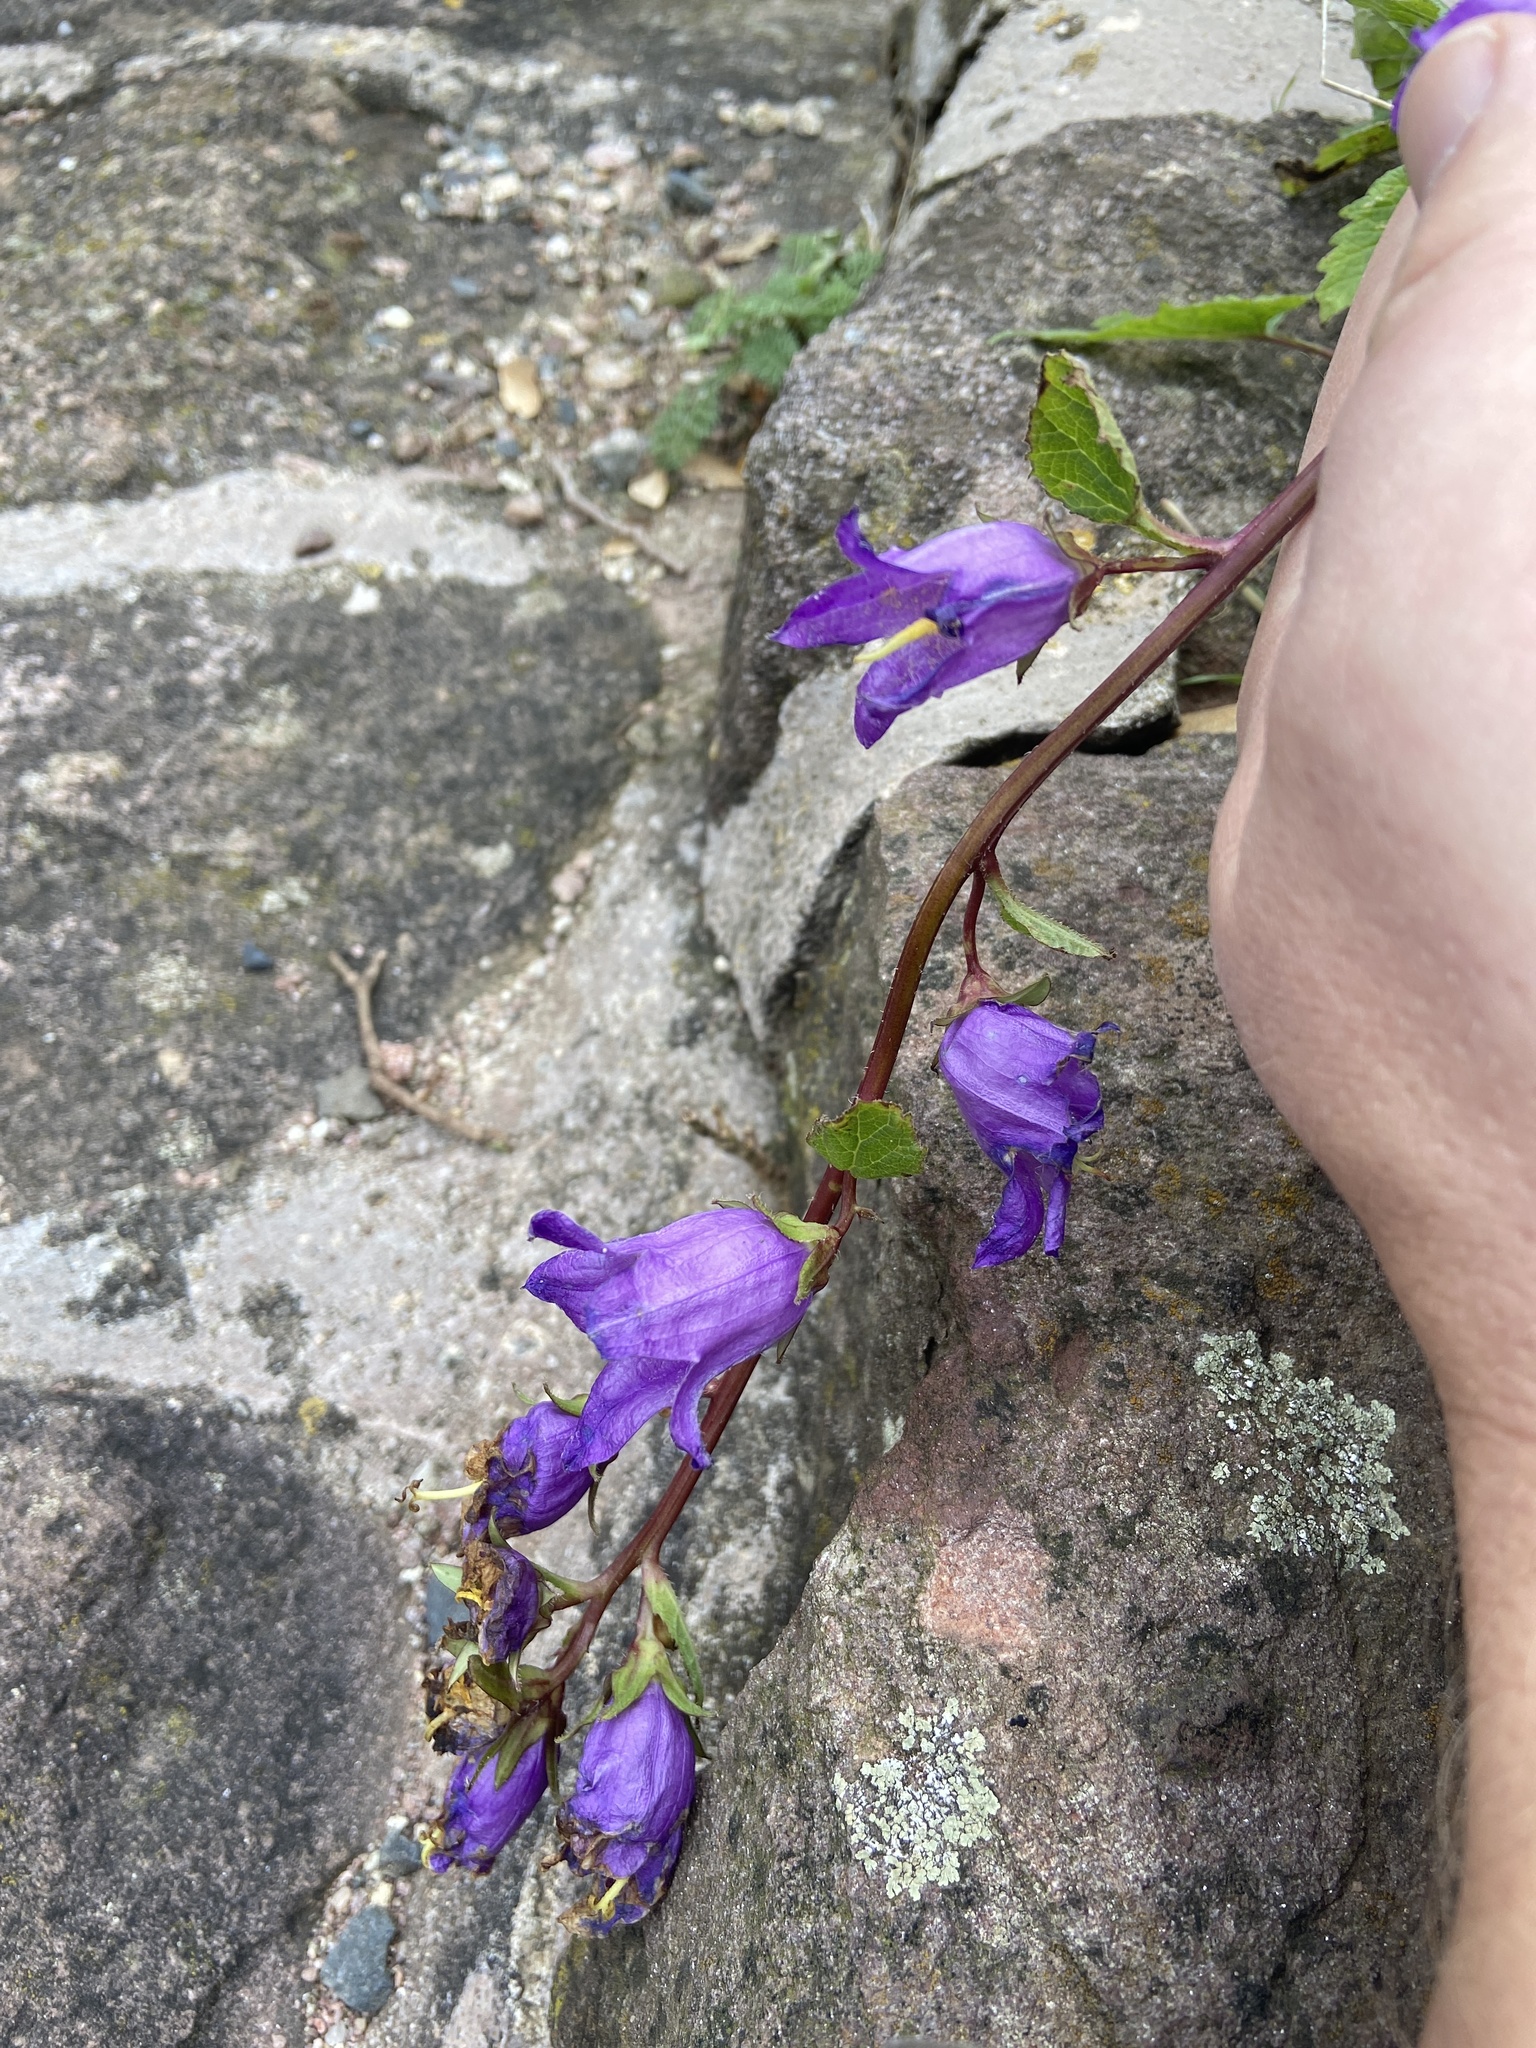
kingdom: Plantae
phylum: Tracheophyta
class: Magnoliopsida
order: Asterales
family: Campanulaceae
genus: Campanula
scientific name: Campanula trachelium
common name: Nettle-leaved bellflower
